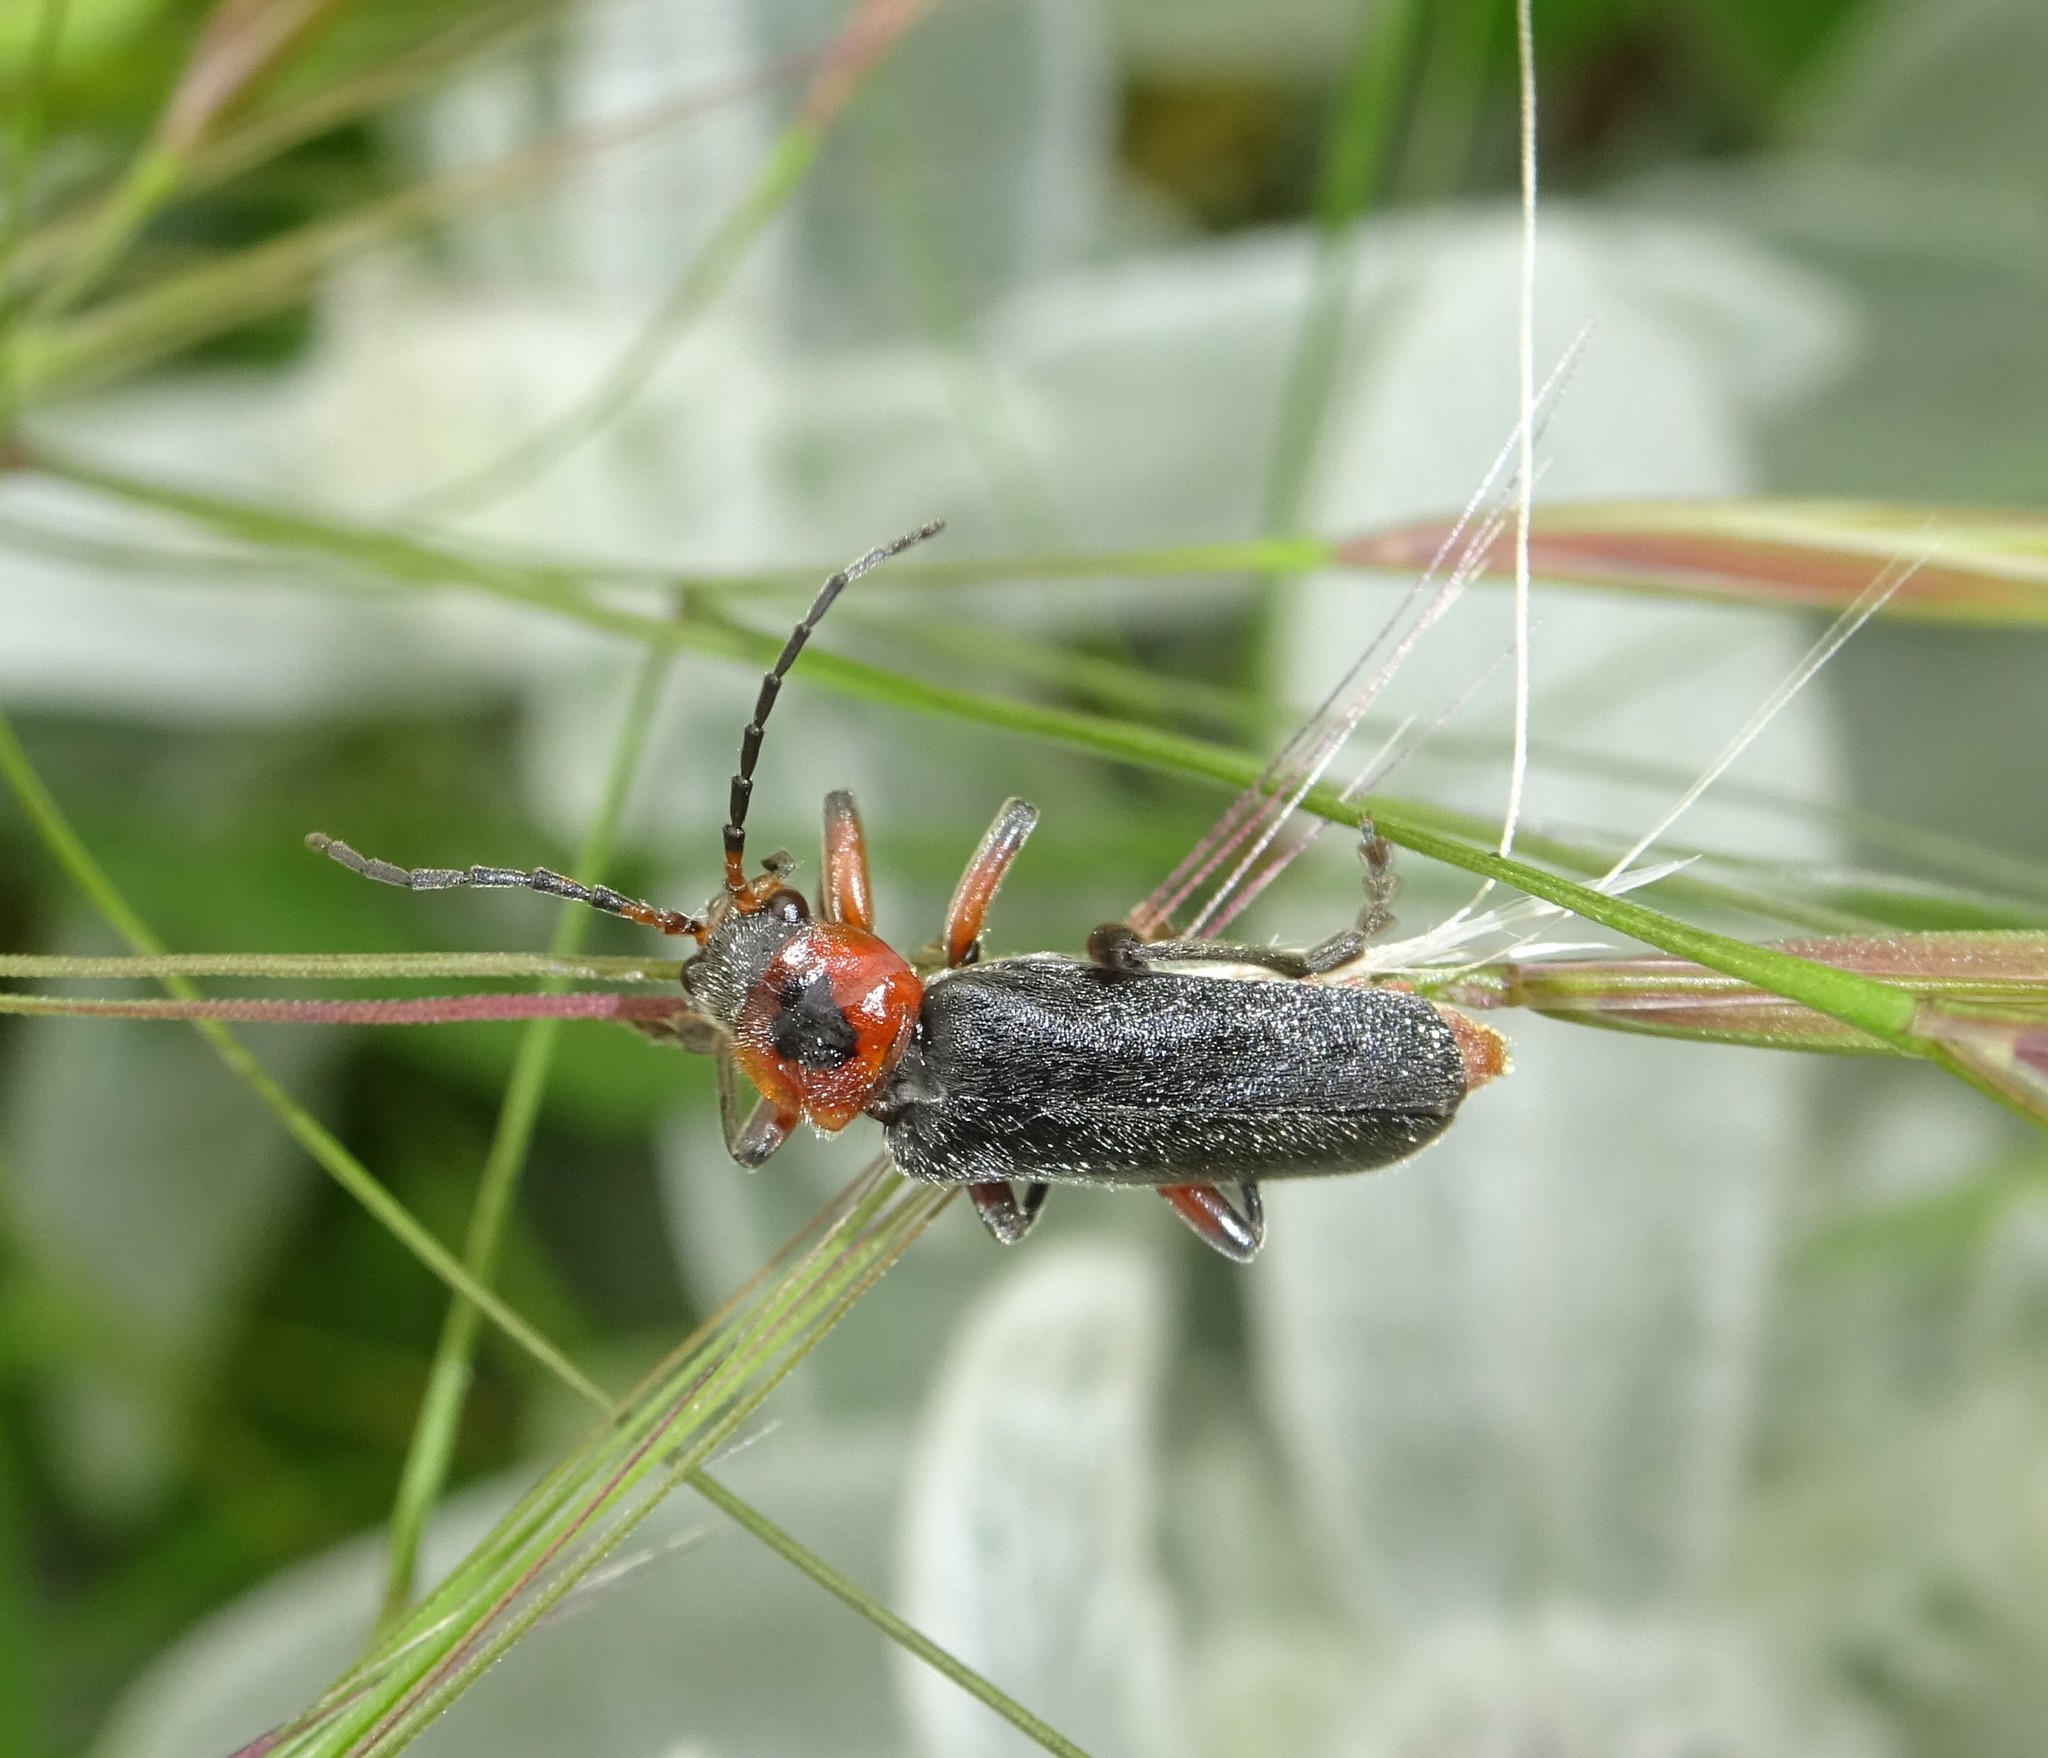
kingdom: Animalia
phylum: Arthropoda
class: Insecta
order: Coleoptera
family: Cantharidae
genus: Cantharis
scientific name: Cantharis rustica
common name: Soldier beetle
